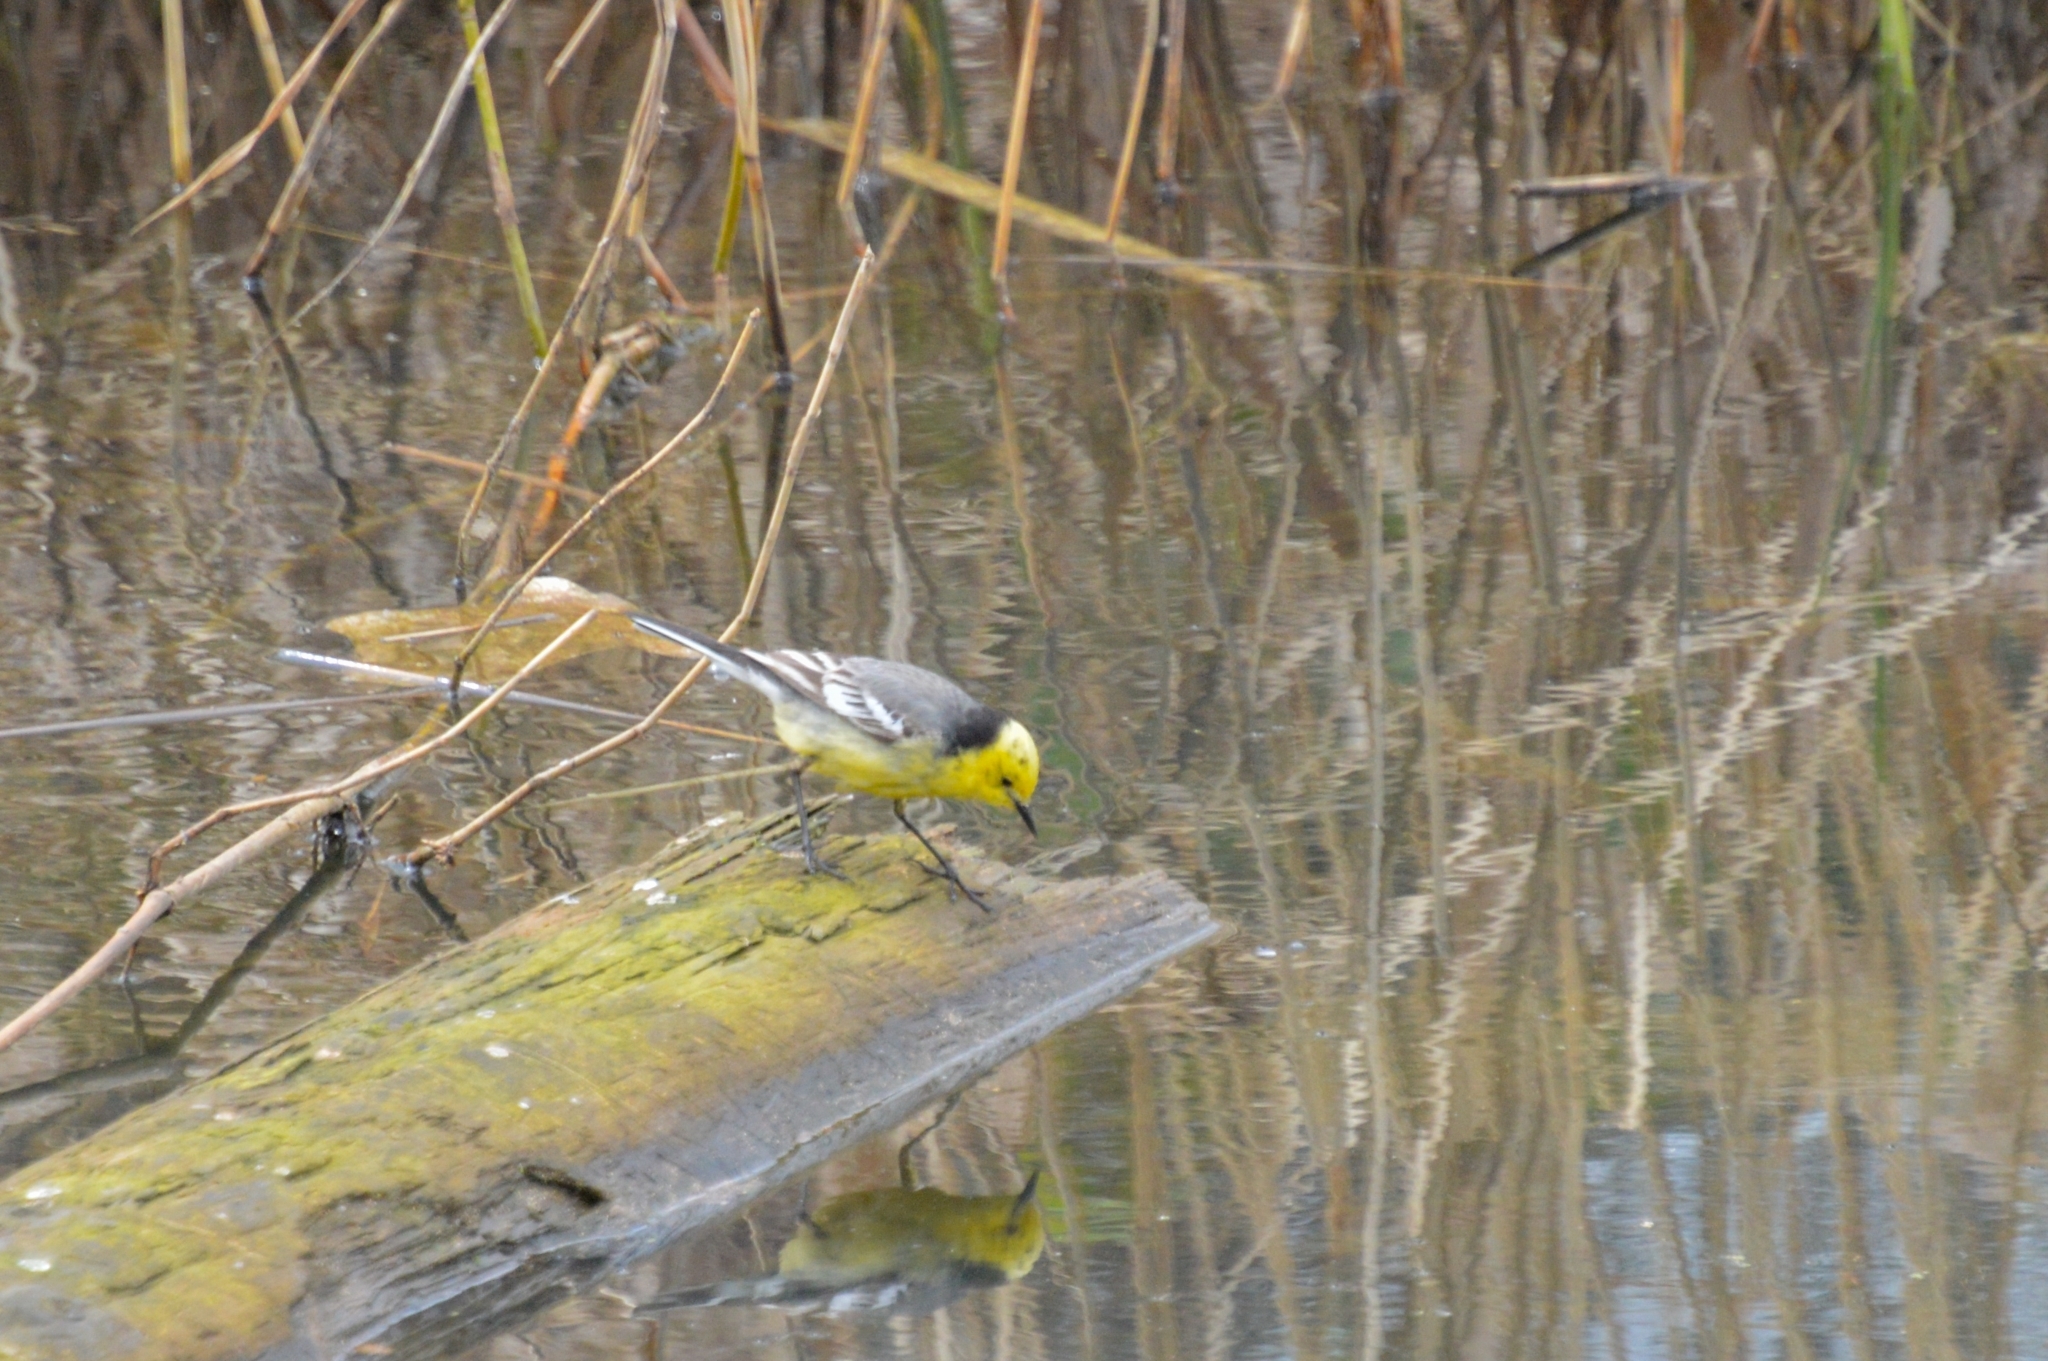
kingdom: Animalia
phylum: Chordata
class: Aves
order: Passeriformes
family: Motacillidae
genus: Motacilla
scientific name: Motacilla citreola
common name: Citrine wagtail
